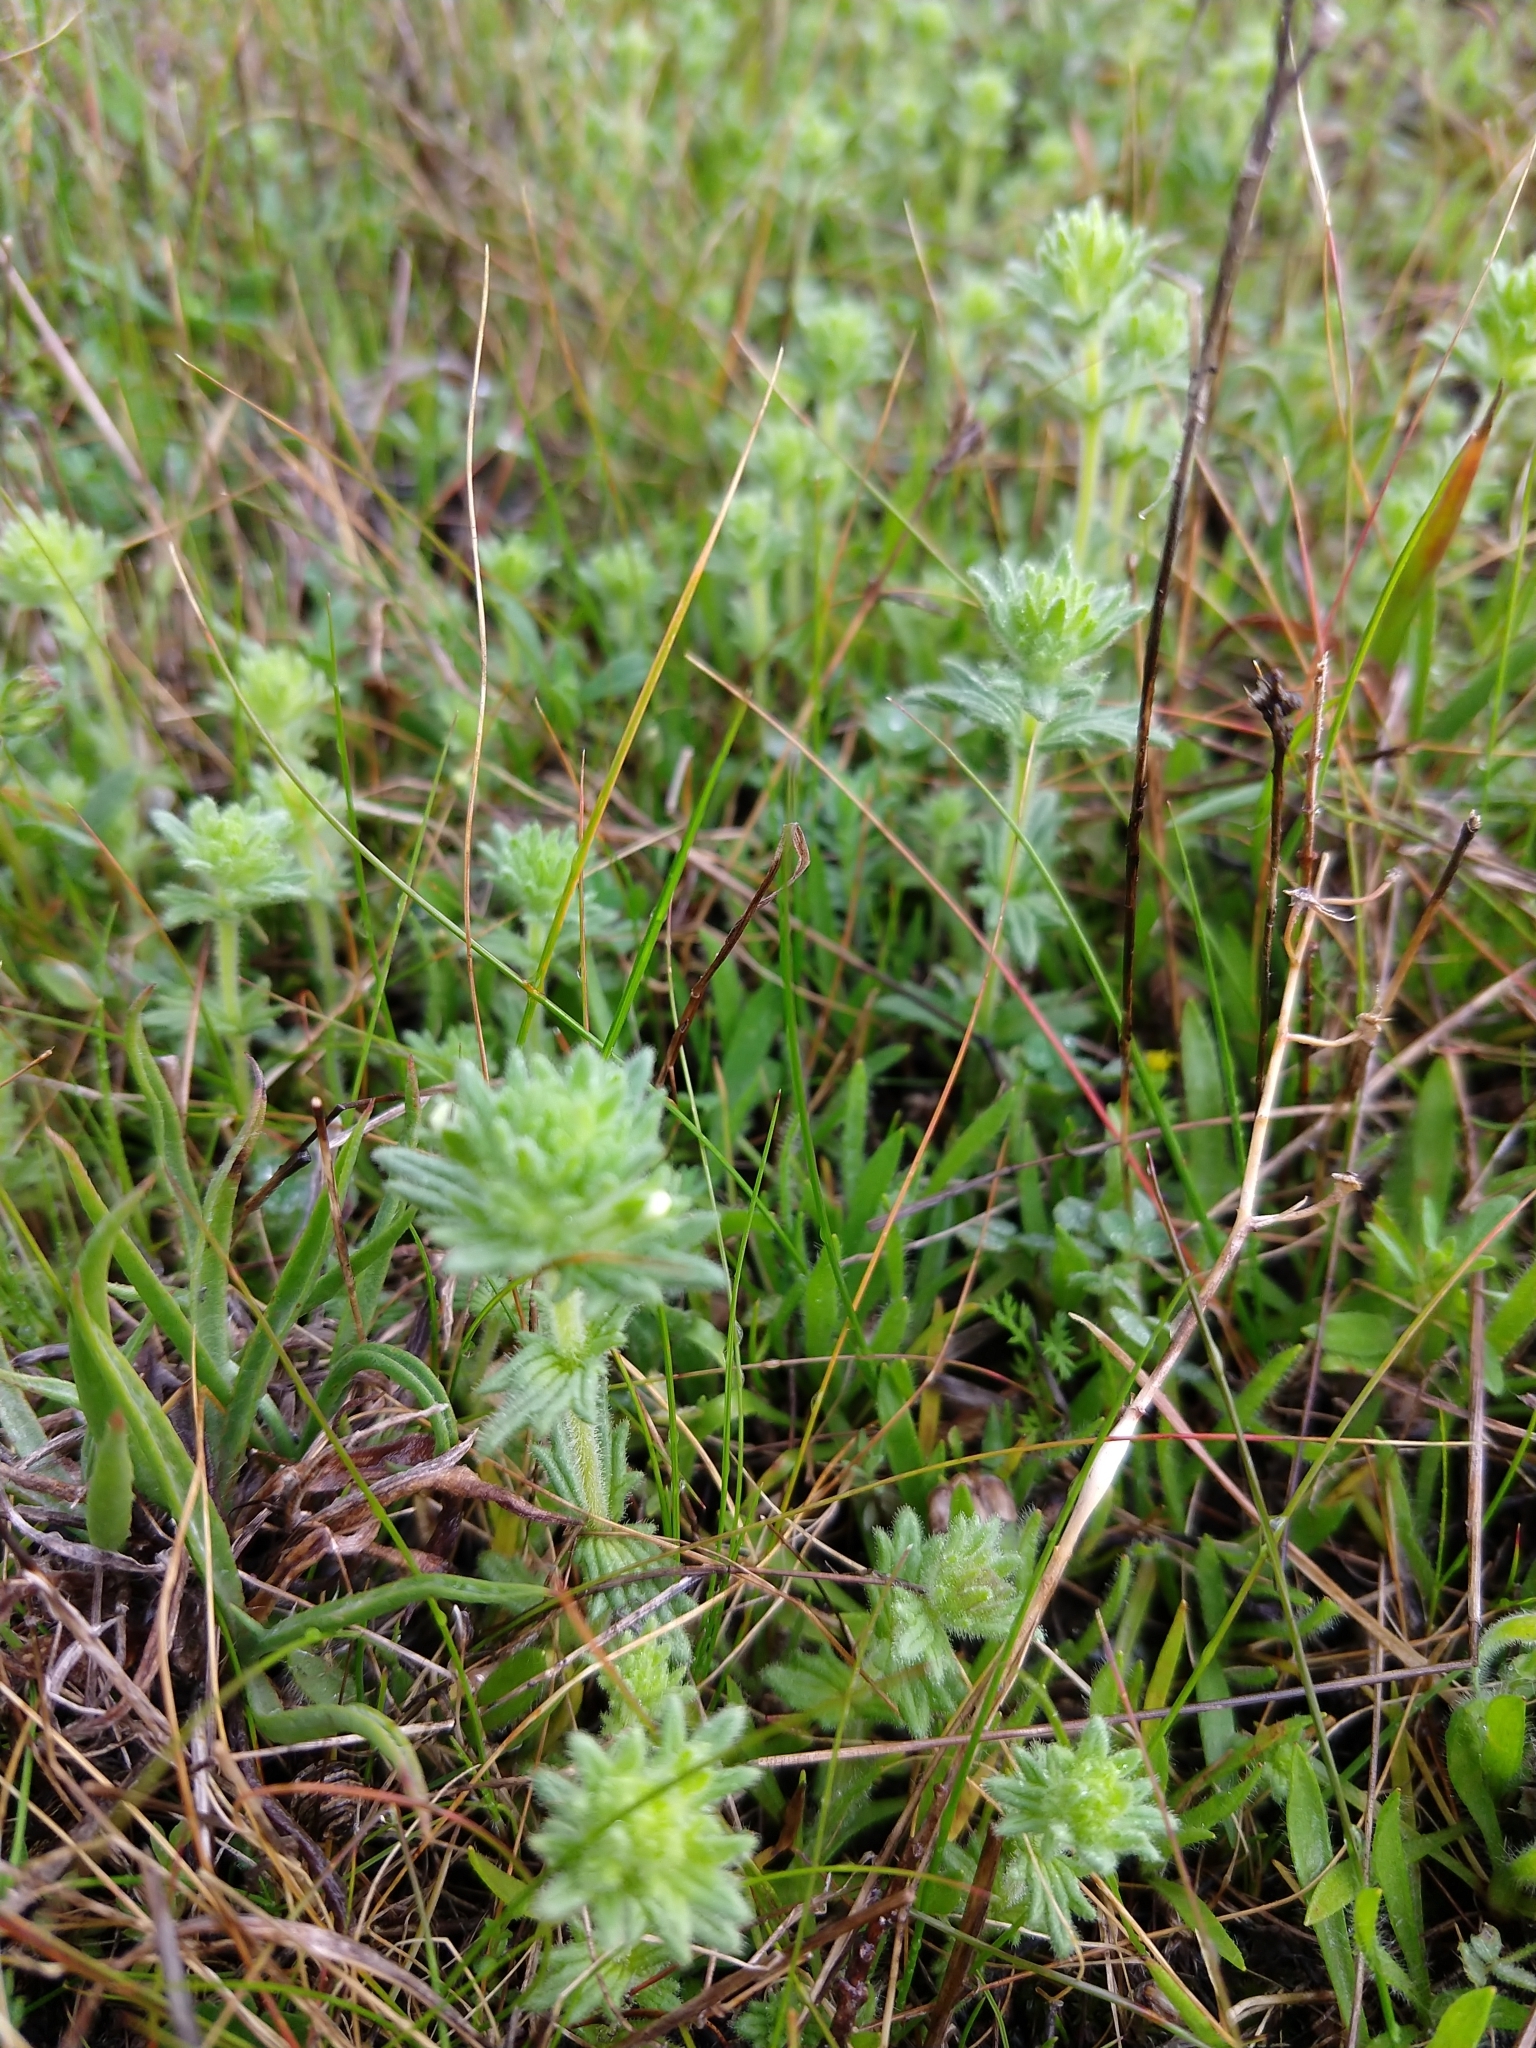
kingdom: Plantae
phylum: Tracheophyta
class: Magnoliopsida
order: Lamiales
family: Orobanchaceae
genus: Parentucellia
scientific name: Parentucellia flaviflora
